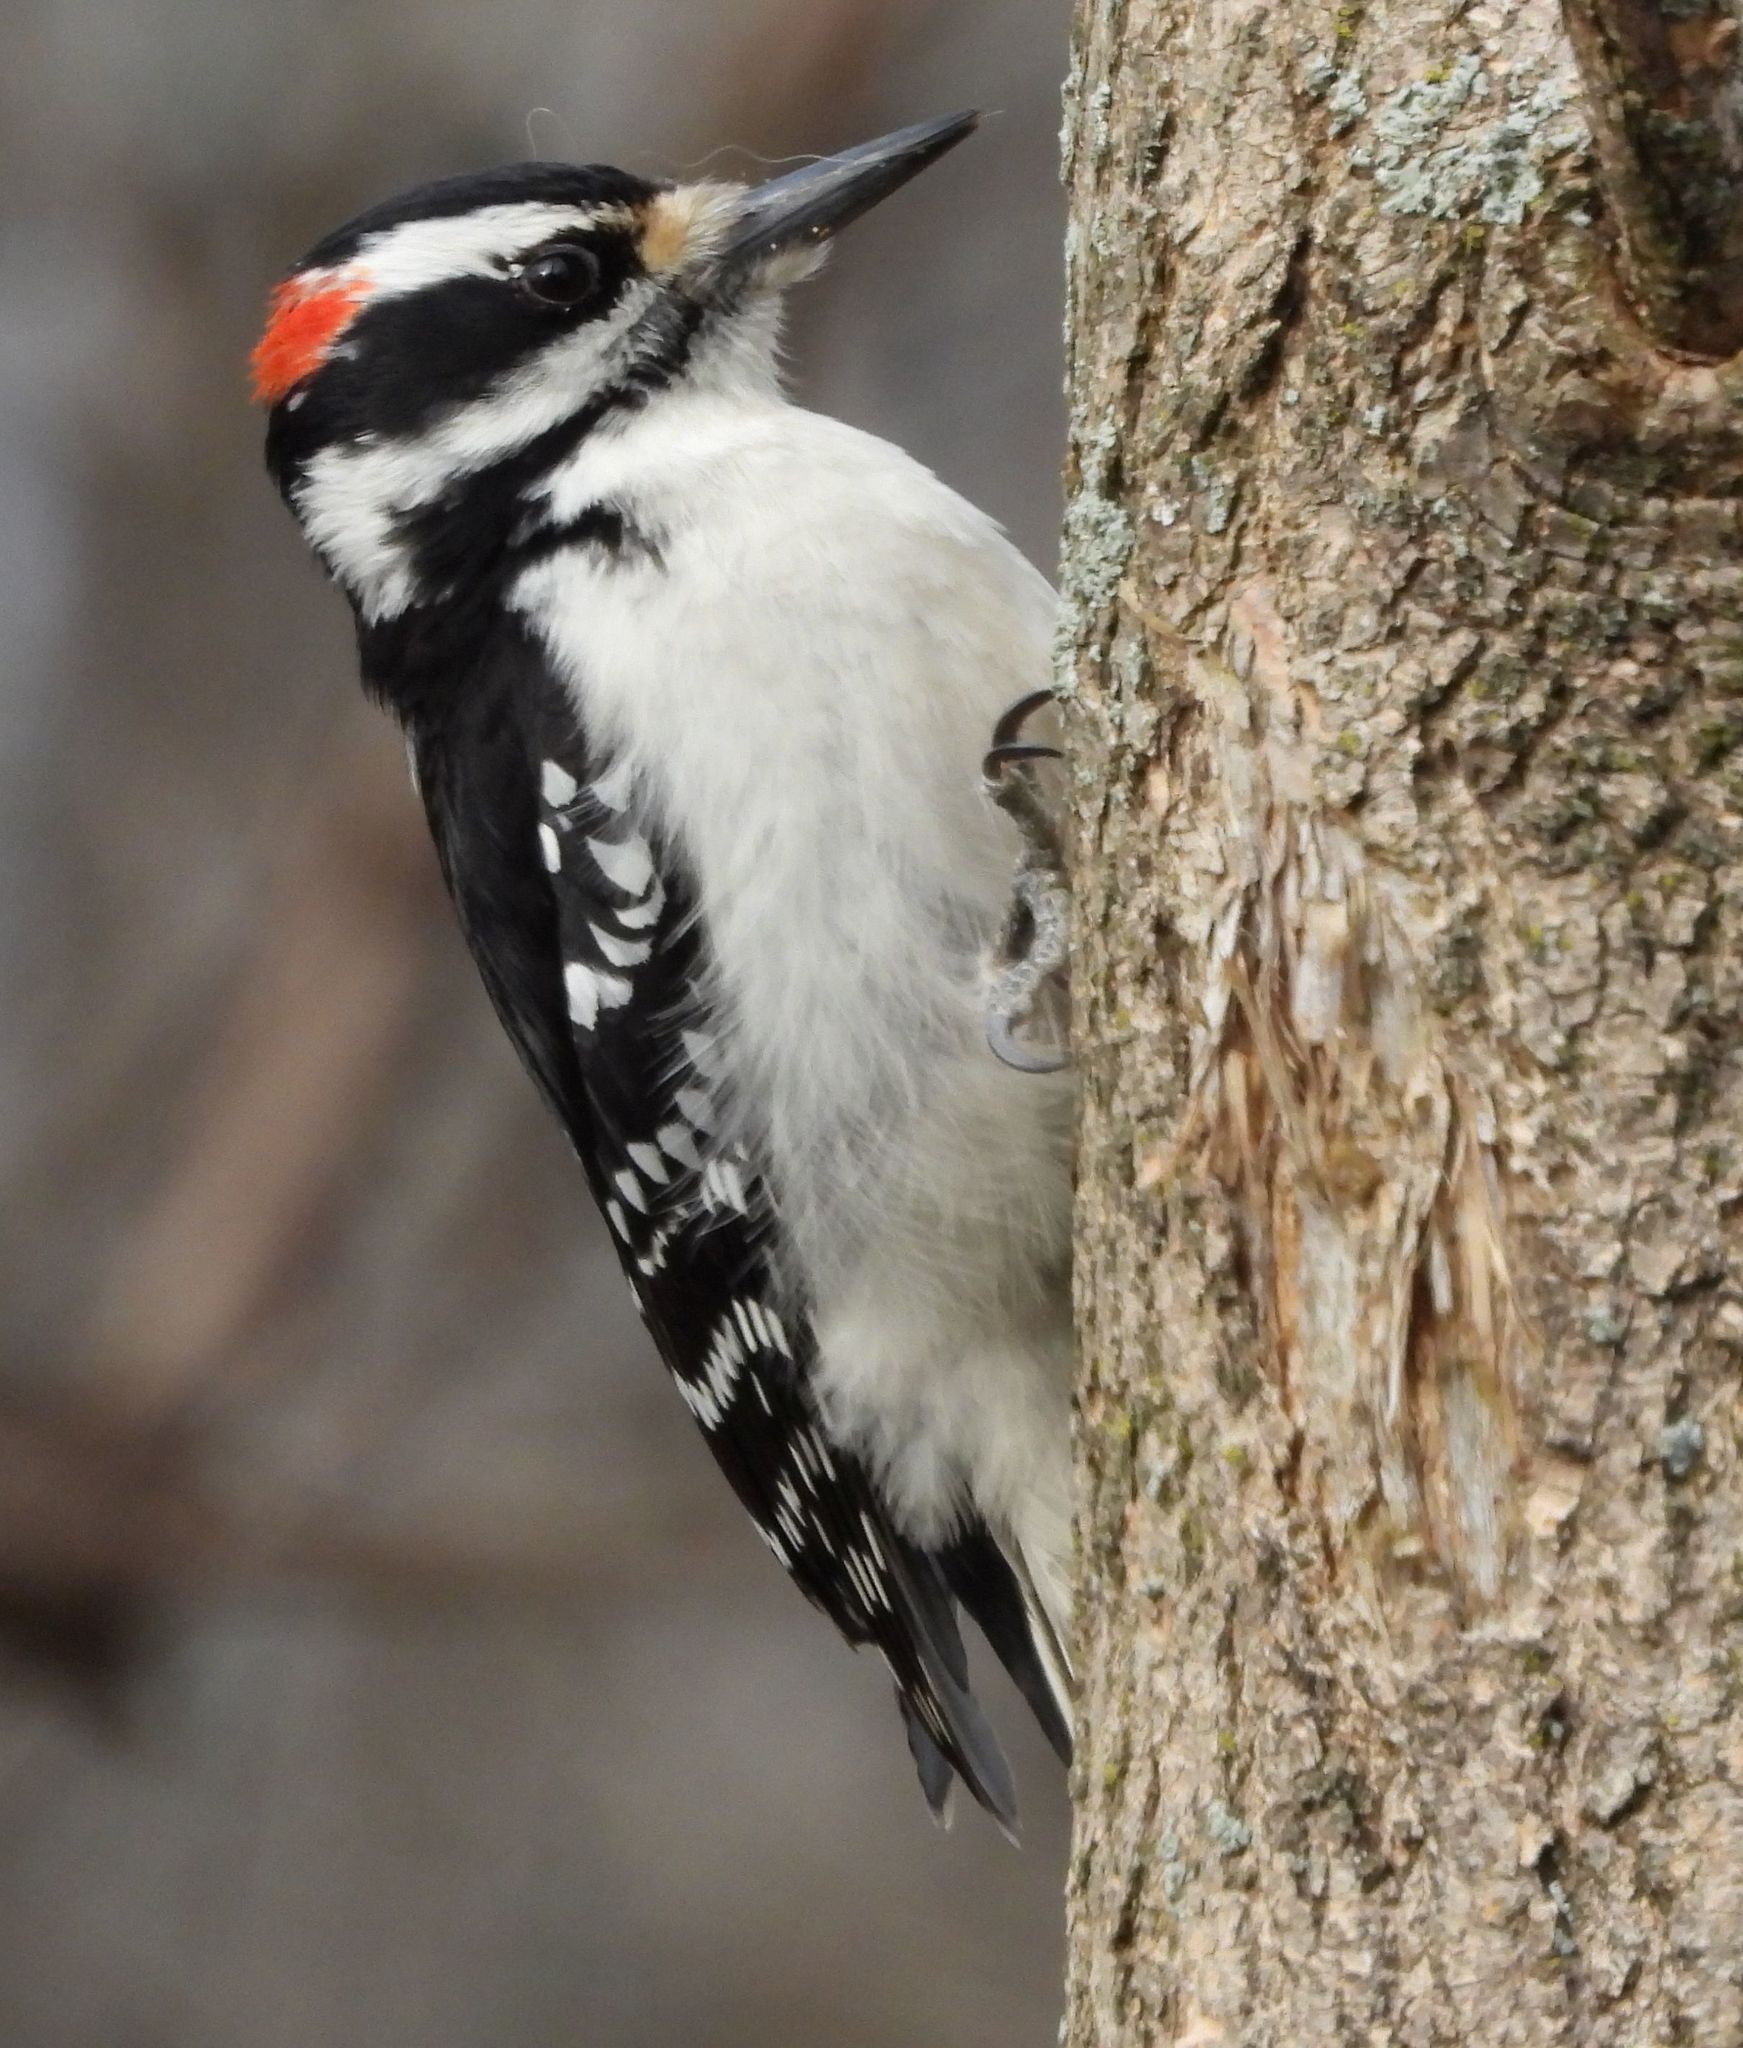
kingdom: Animalia
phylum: Chordata
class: Aves
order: Piciformes
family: Picidae
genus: Leuconotopicus
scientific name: Leuconotopicus villosus
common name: Hairy woodpecker
